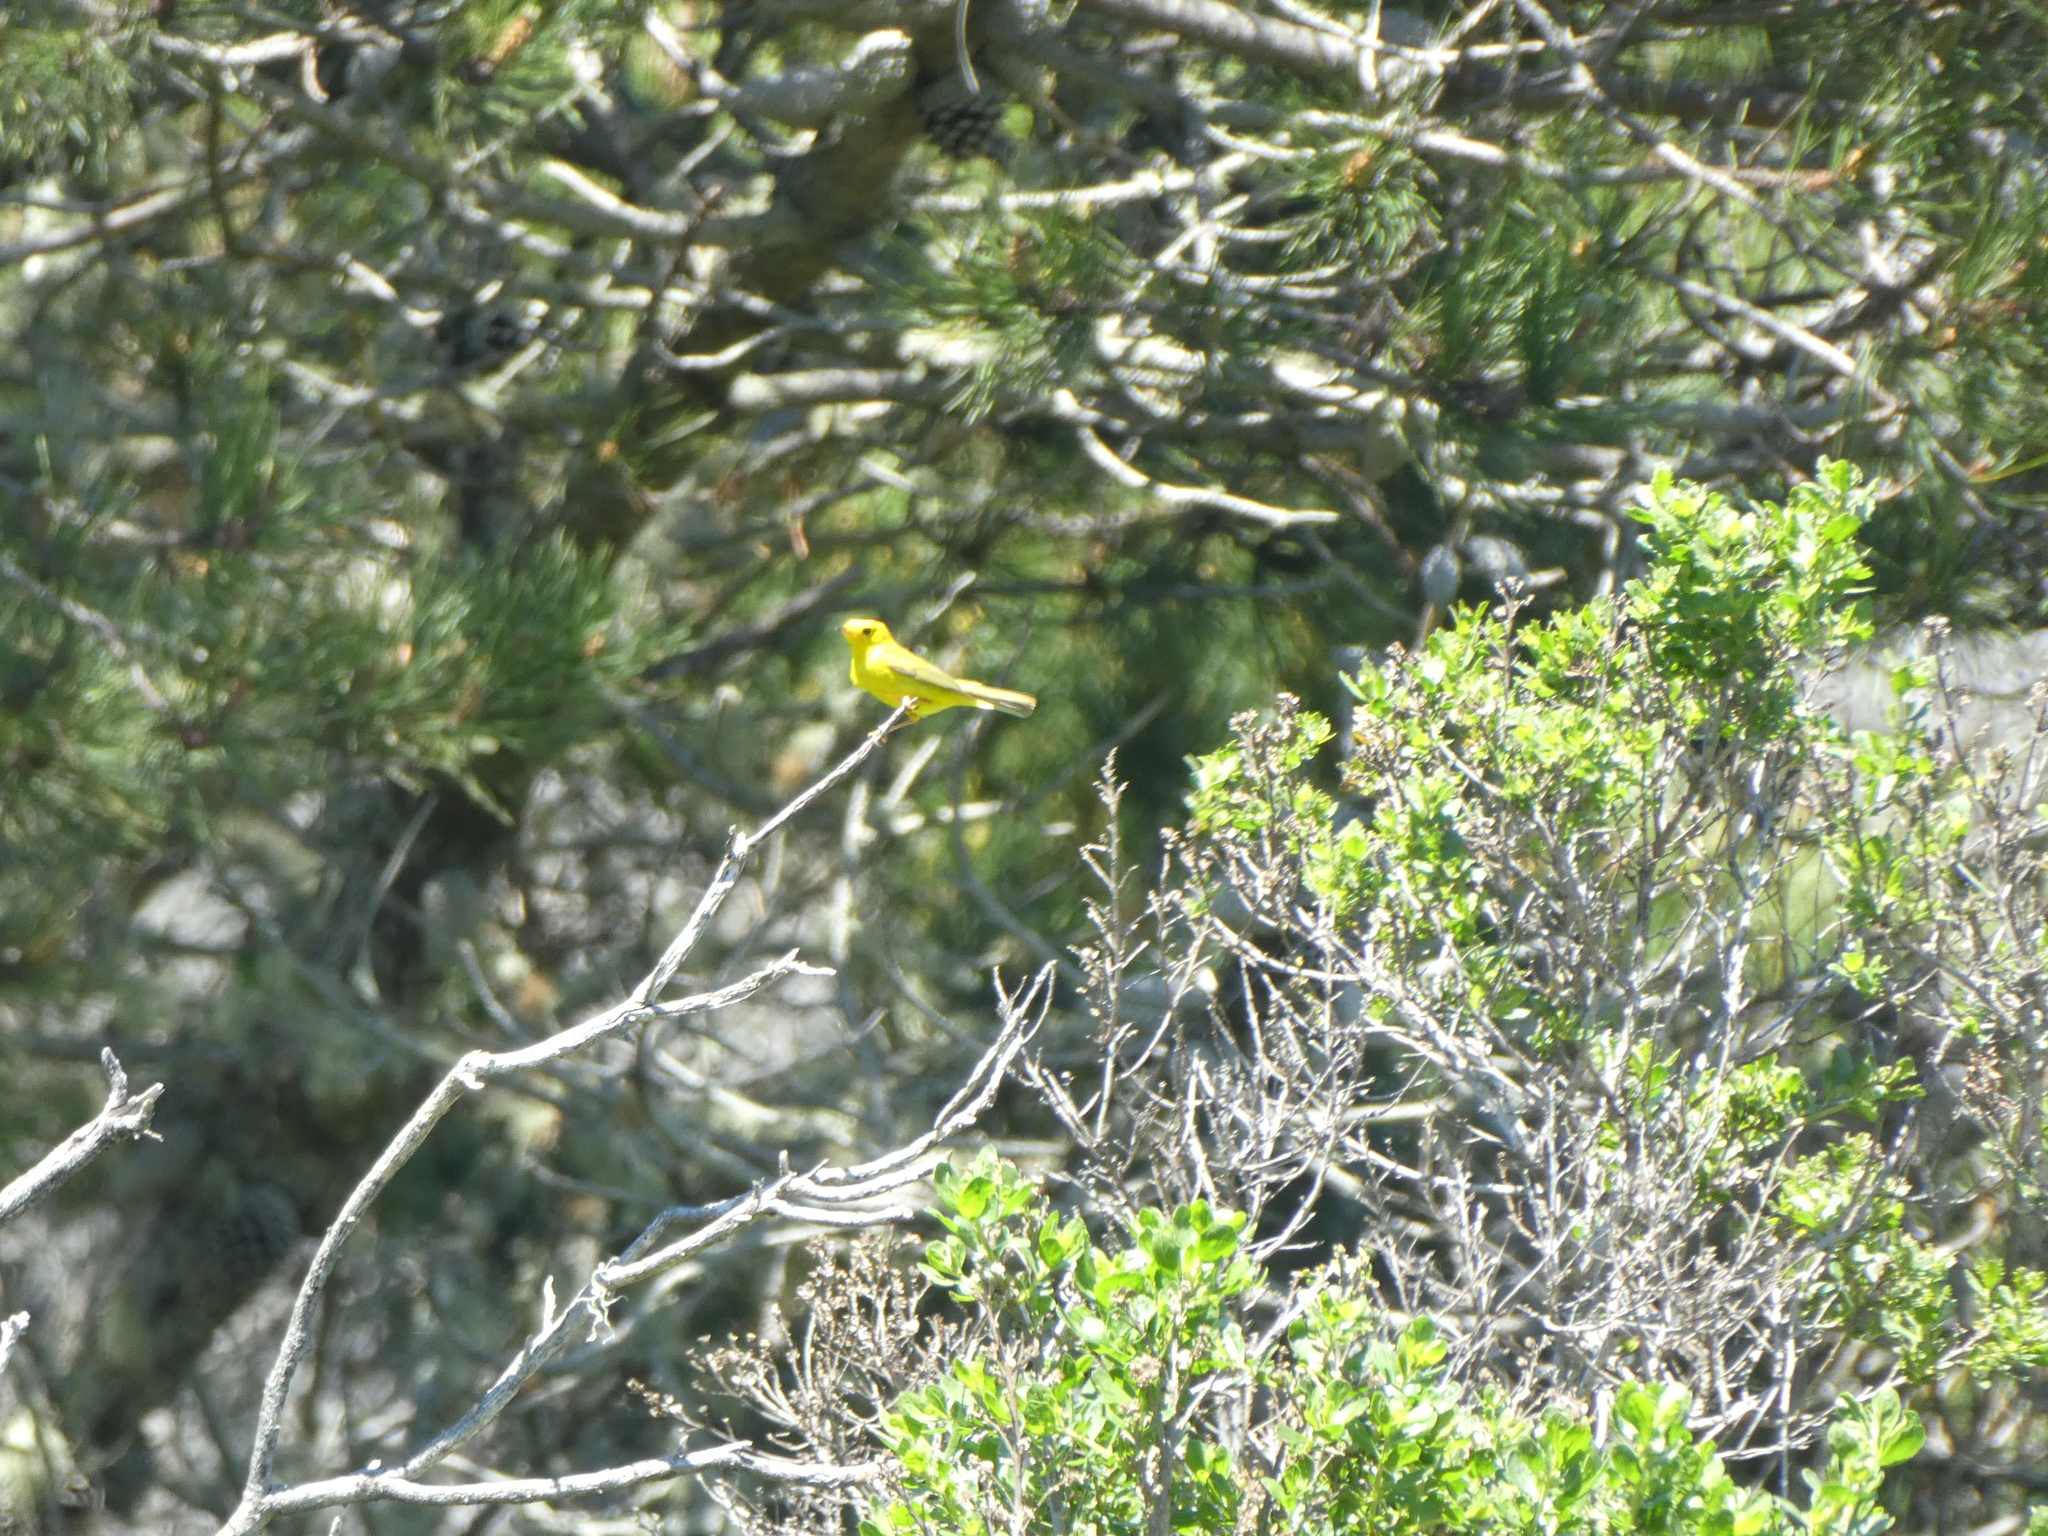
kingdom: Animalia
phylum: Chordata
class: Aves
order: Passeriformes
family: Parulidae
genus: Cardellina
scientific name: Cardellina pusilla
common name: Wilson's warbler
